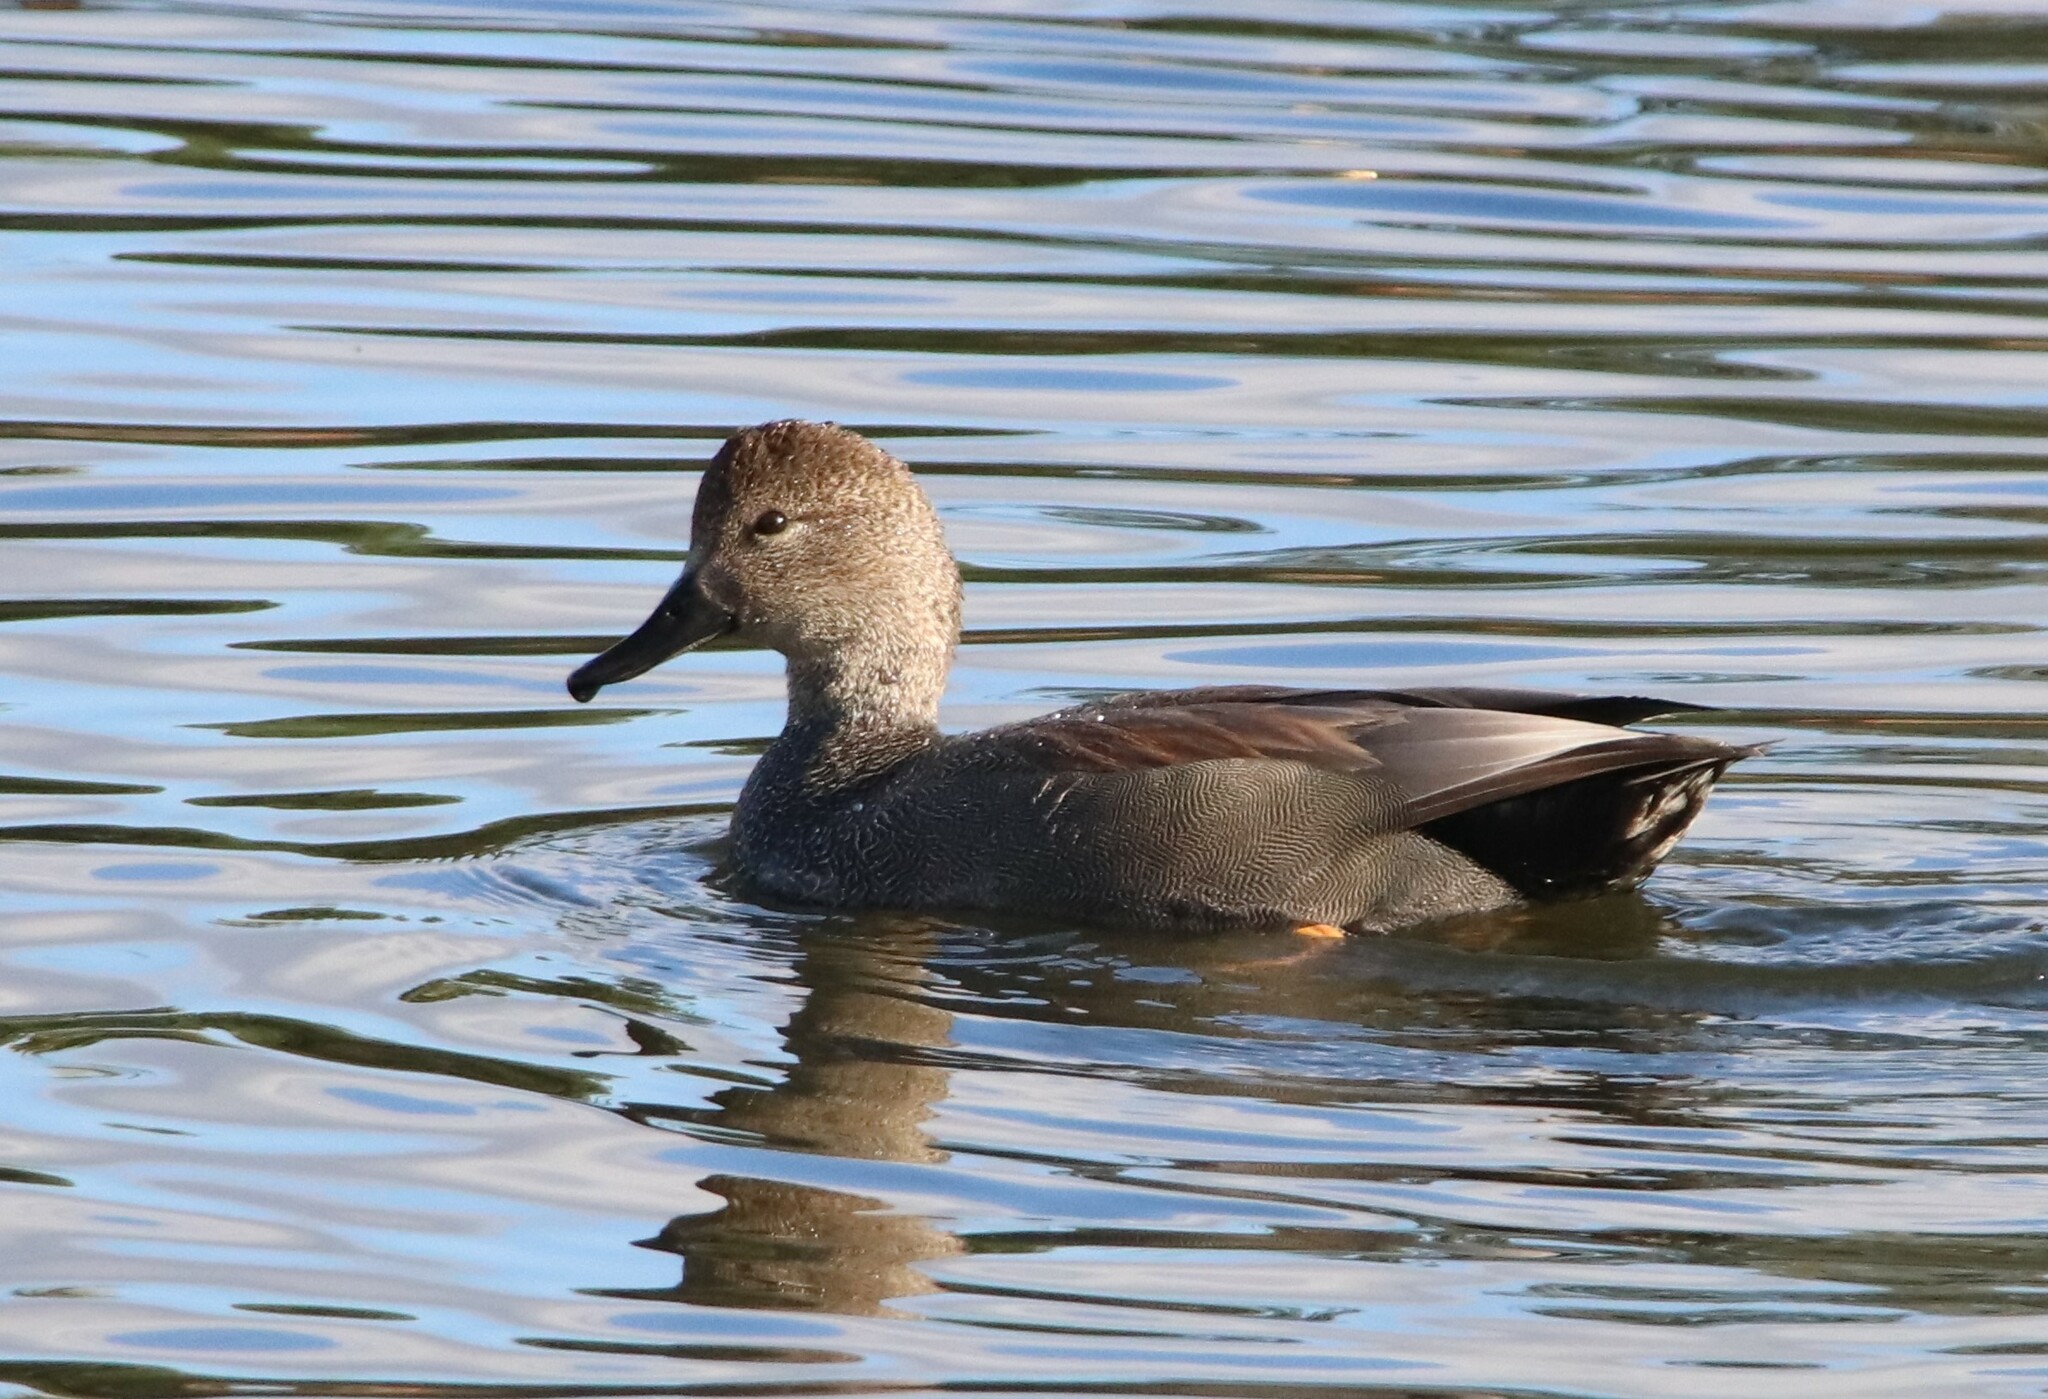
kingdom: Animalia
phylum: Chordata
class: Aves
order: Anseriformes
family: Anatidae
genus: Mareca
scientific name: Mareca strepera
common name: Gadwall
